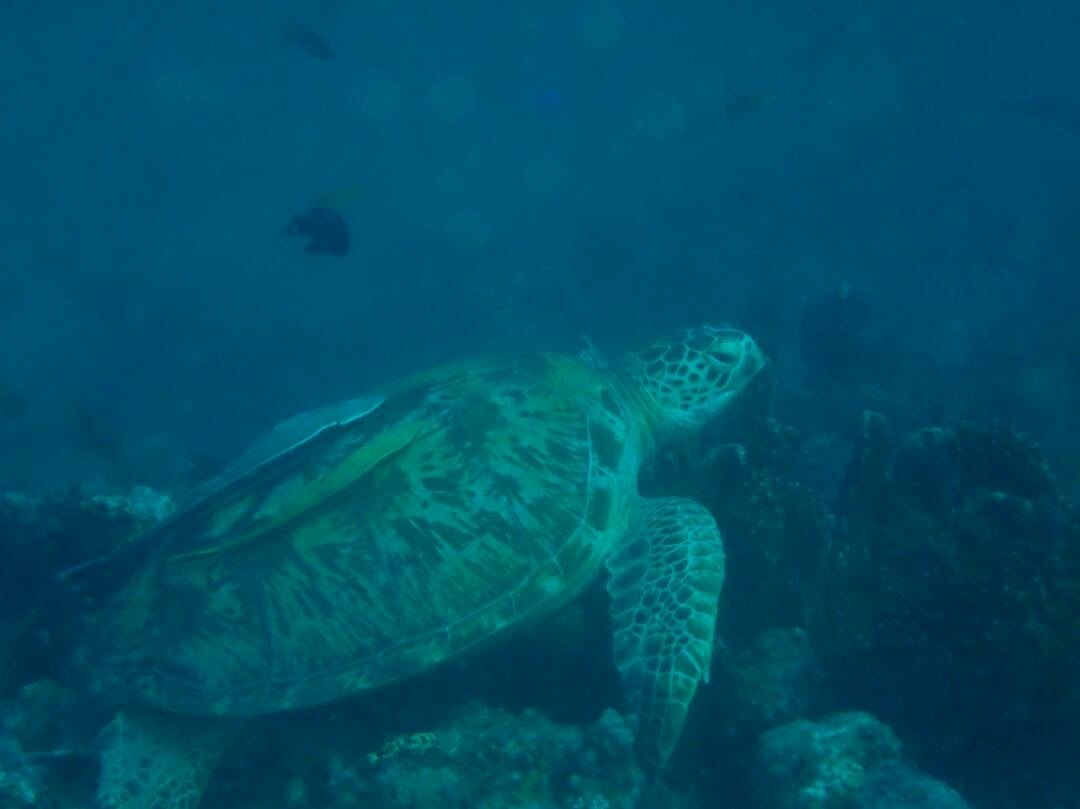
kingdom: Animalia
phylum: Chordata
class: Testudines
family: Cheloniidae
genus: Chelonia
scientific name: Chelonia mydas
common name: Green turtle
